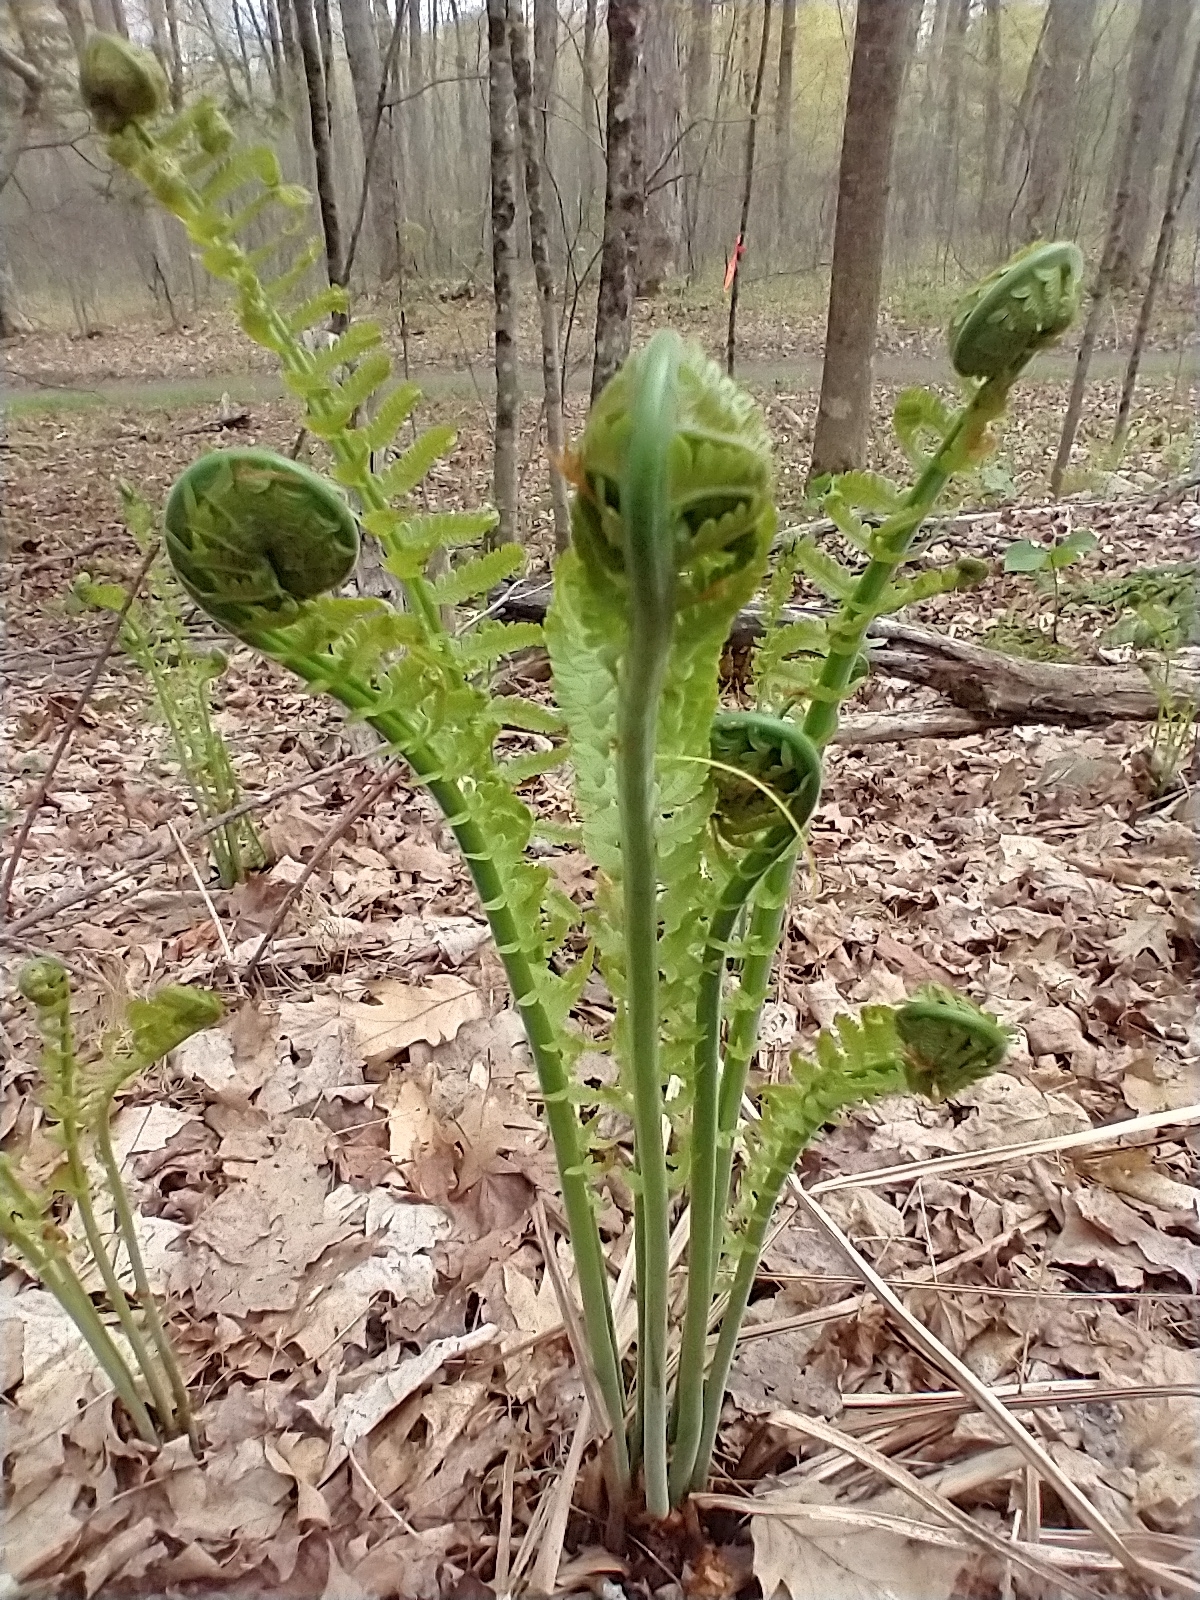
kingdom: Plantae
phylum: Tracheophyta
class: Polypodiopsida
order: Polypodiales
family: Onocleaceae
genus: Matteuccia
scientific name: Matteuccia struthiopteris
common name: Ostrich fern
